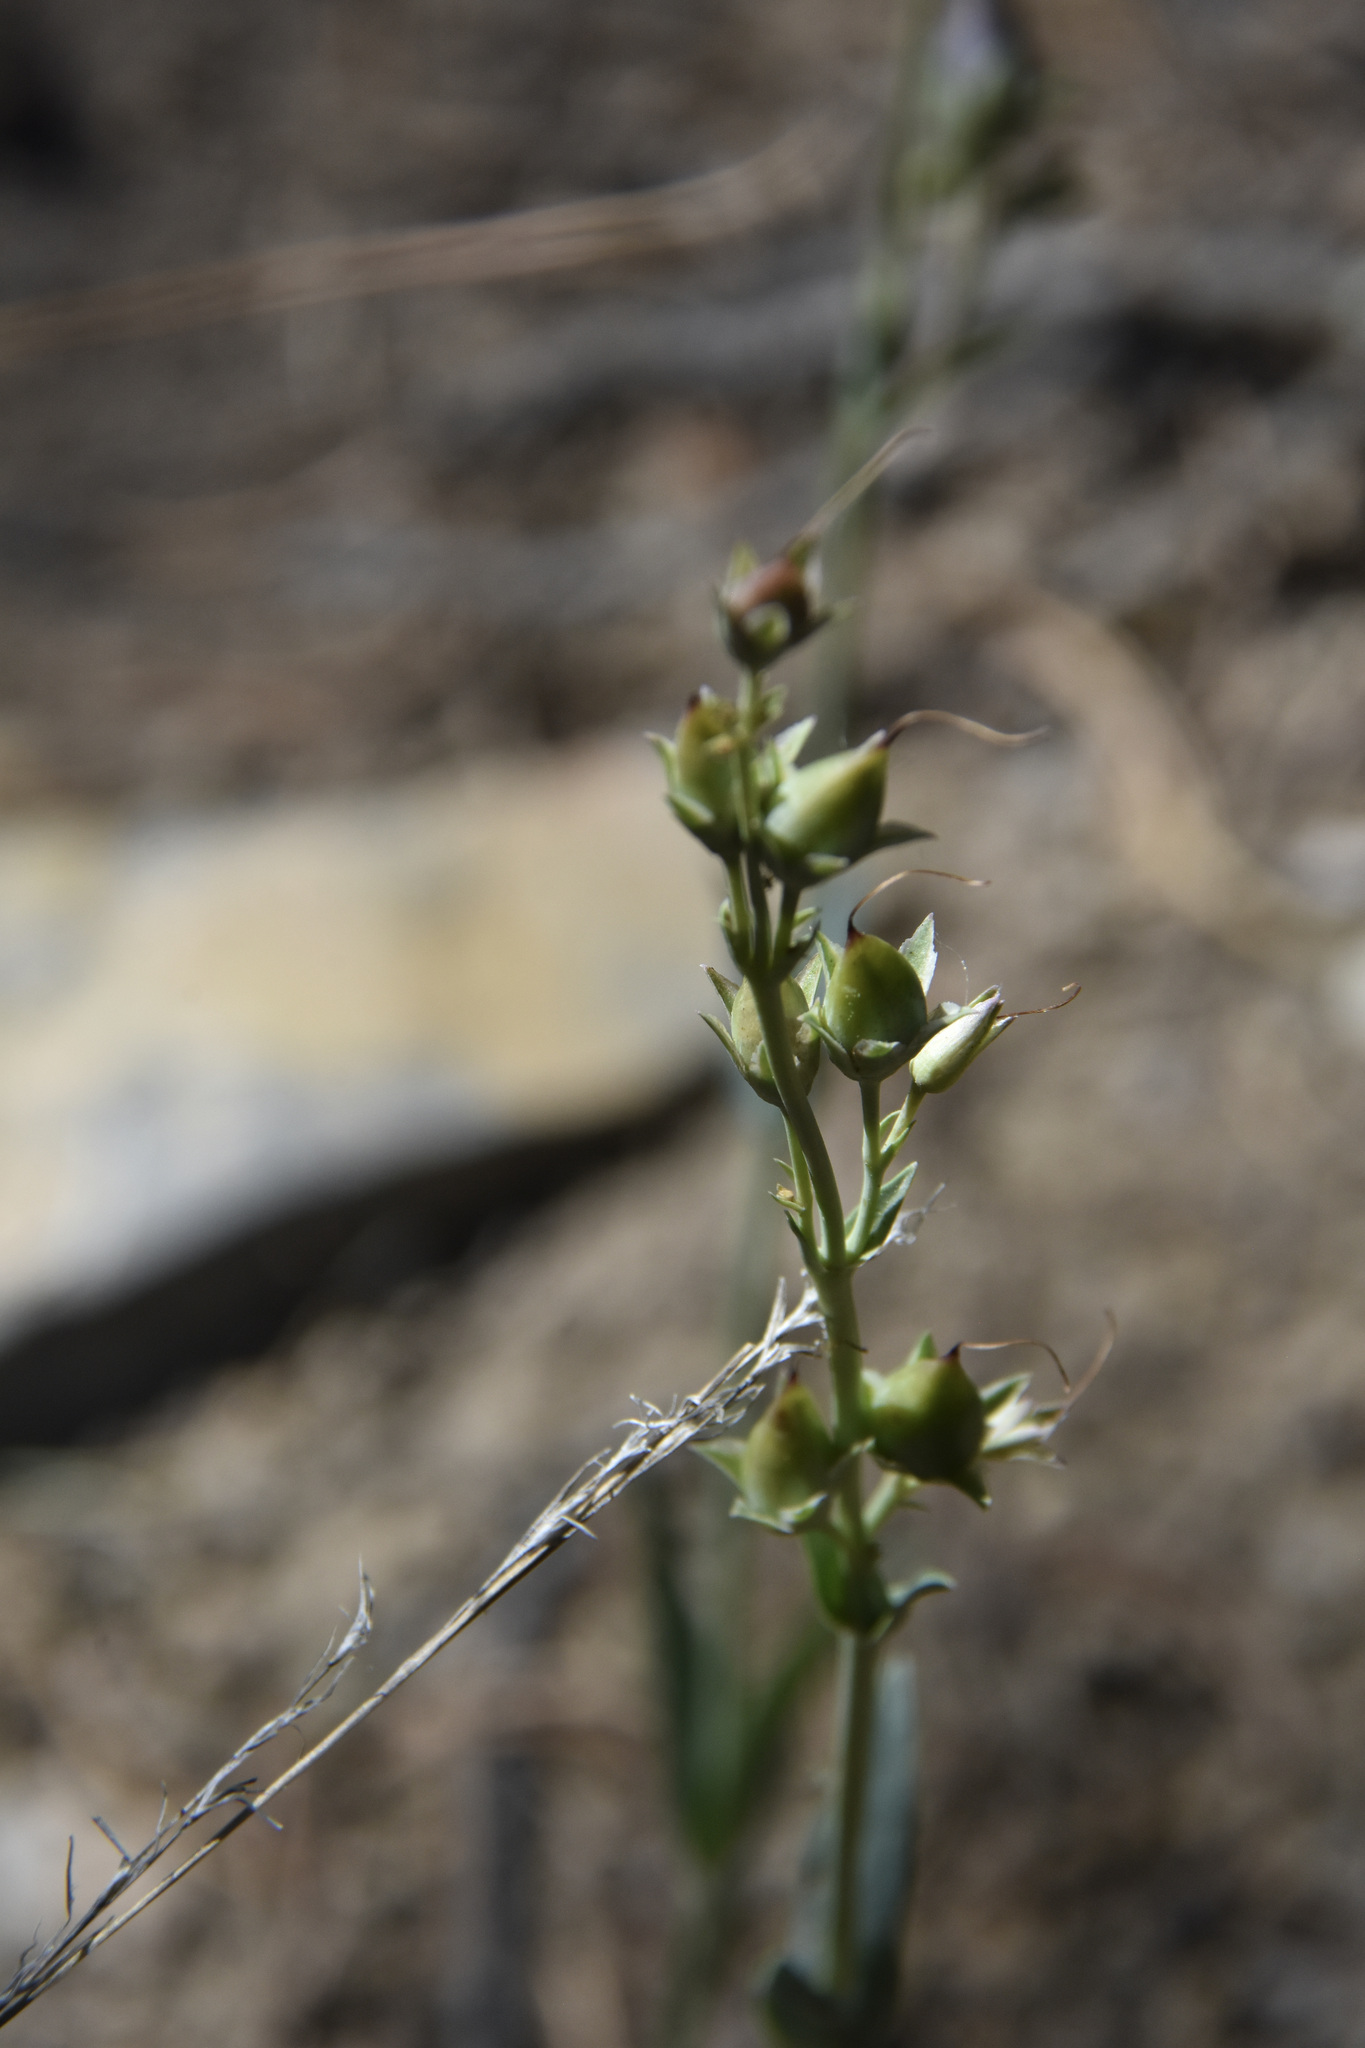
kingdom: Plantae
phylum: Tracheophyta
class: Magnoliopsida
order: Lamiales
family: Plantaginaceae
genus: Penstemon
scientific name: Penstemon
